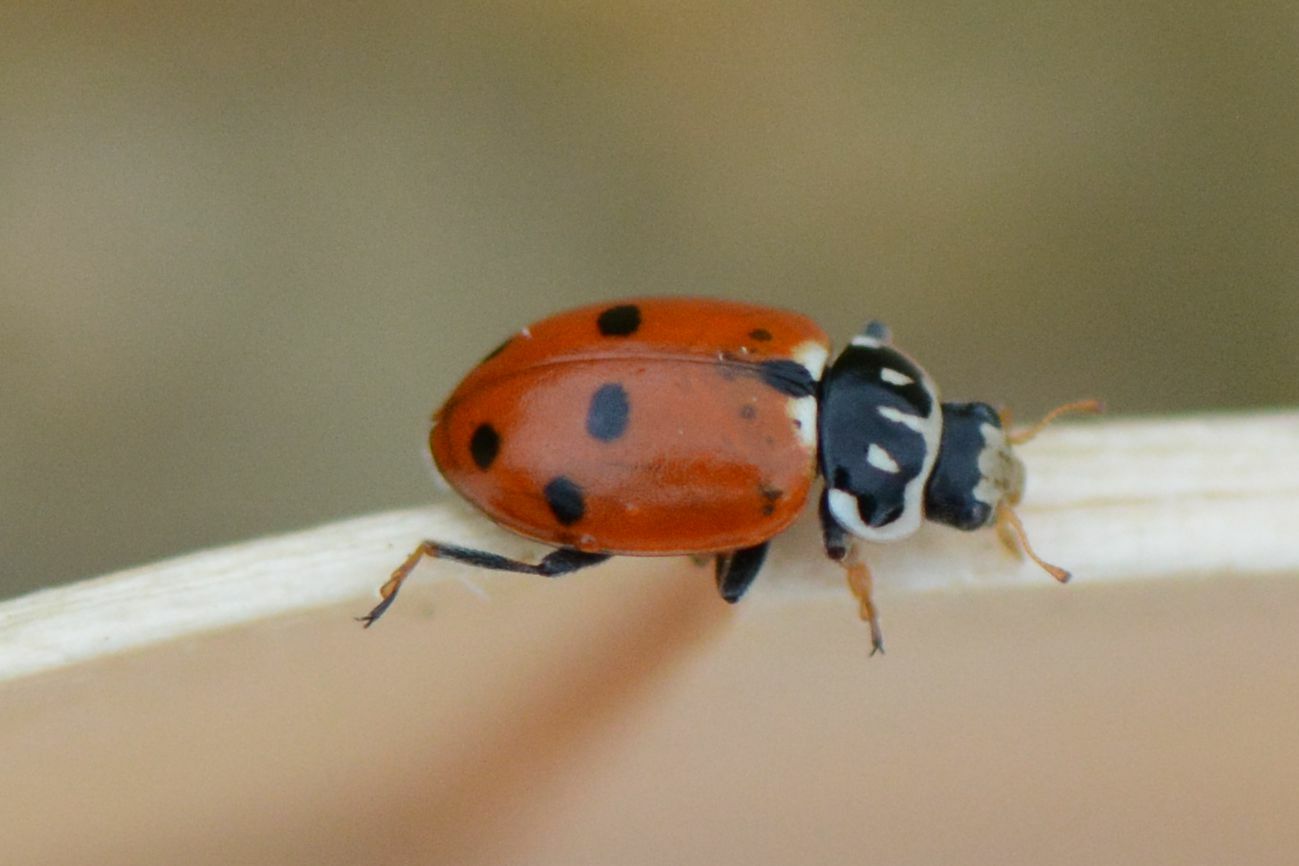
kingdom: Animalia
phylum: Arthropoda
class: Insecta
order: Coleoptera
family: Coccinellidae
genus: Hippodamia
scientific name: Hippodamia variegata
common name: Ladybird beetle
